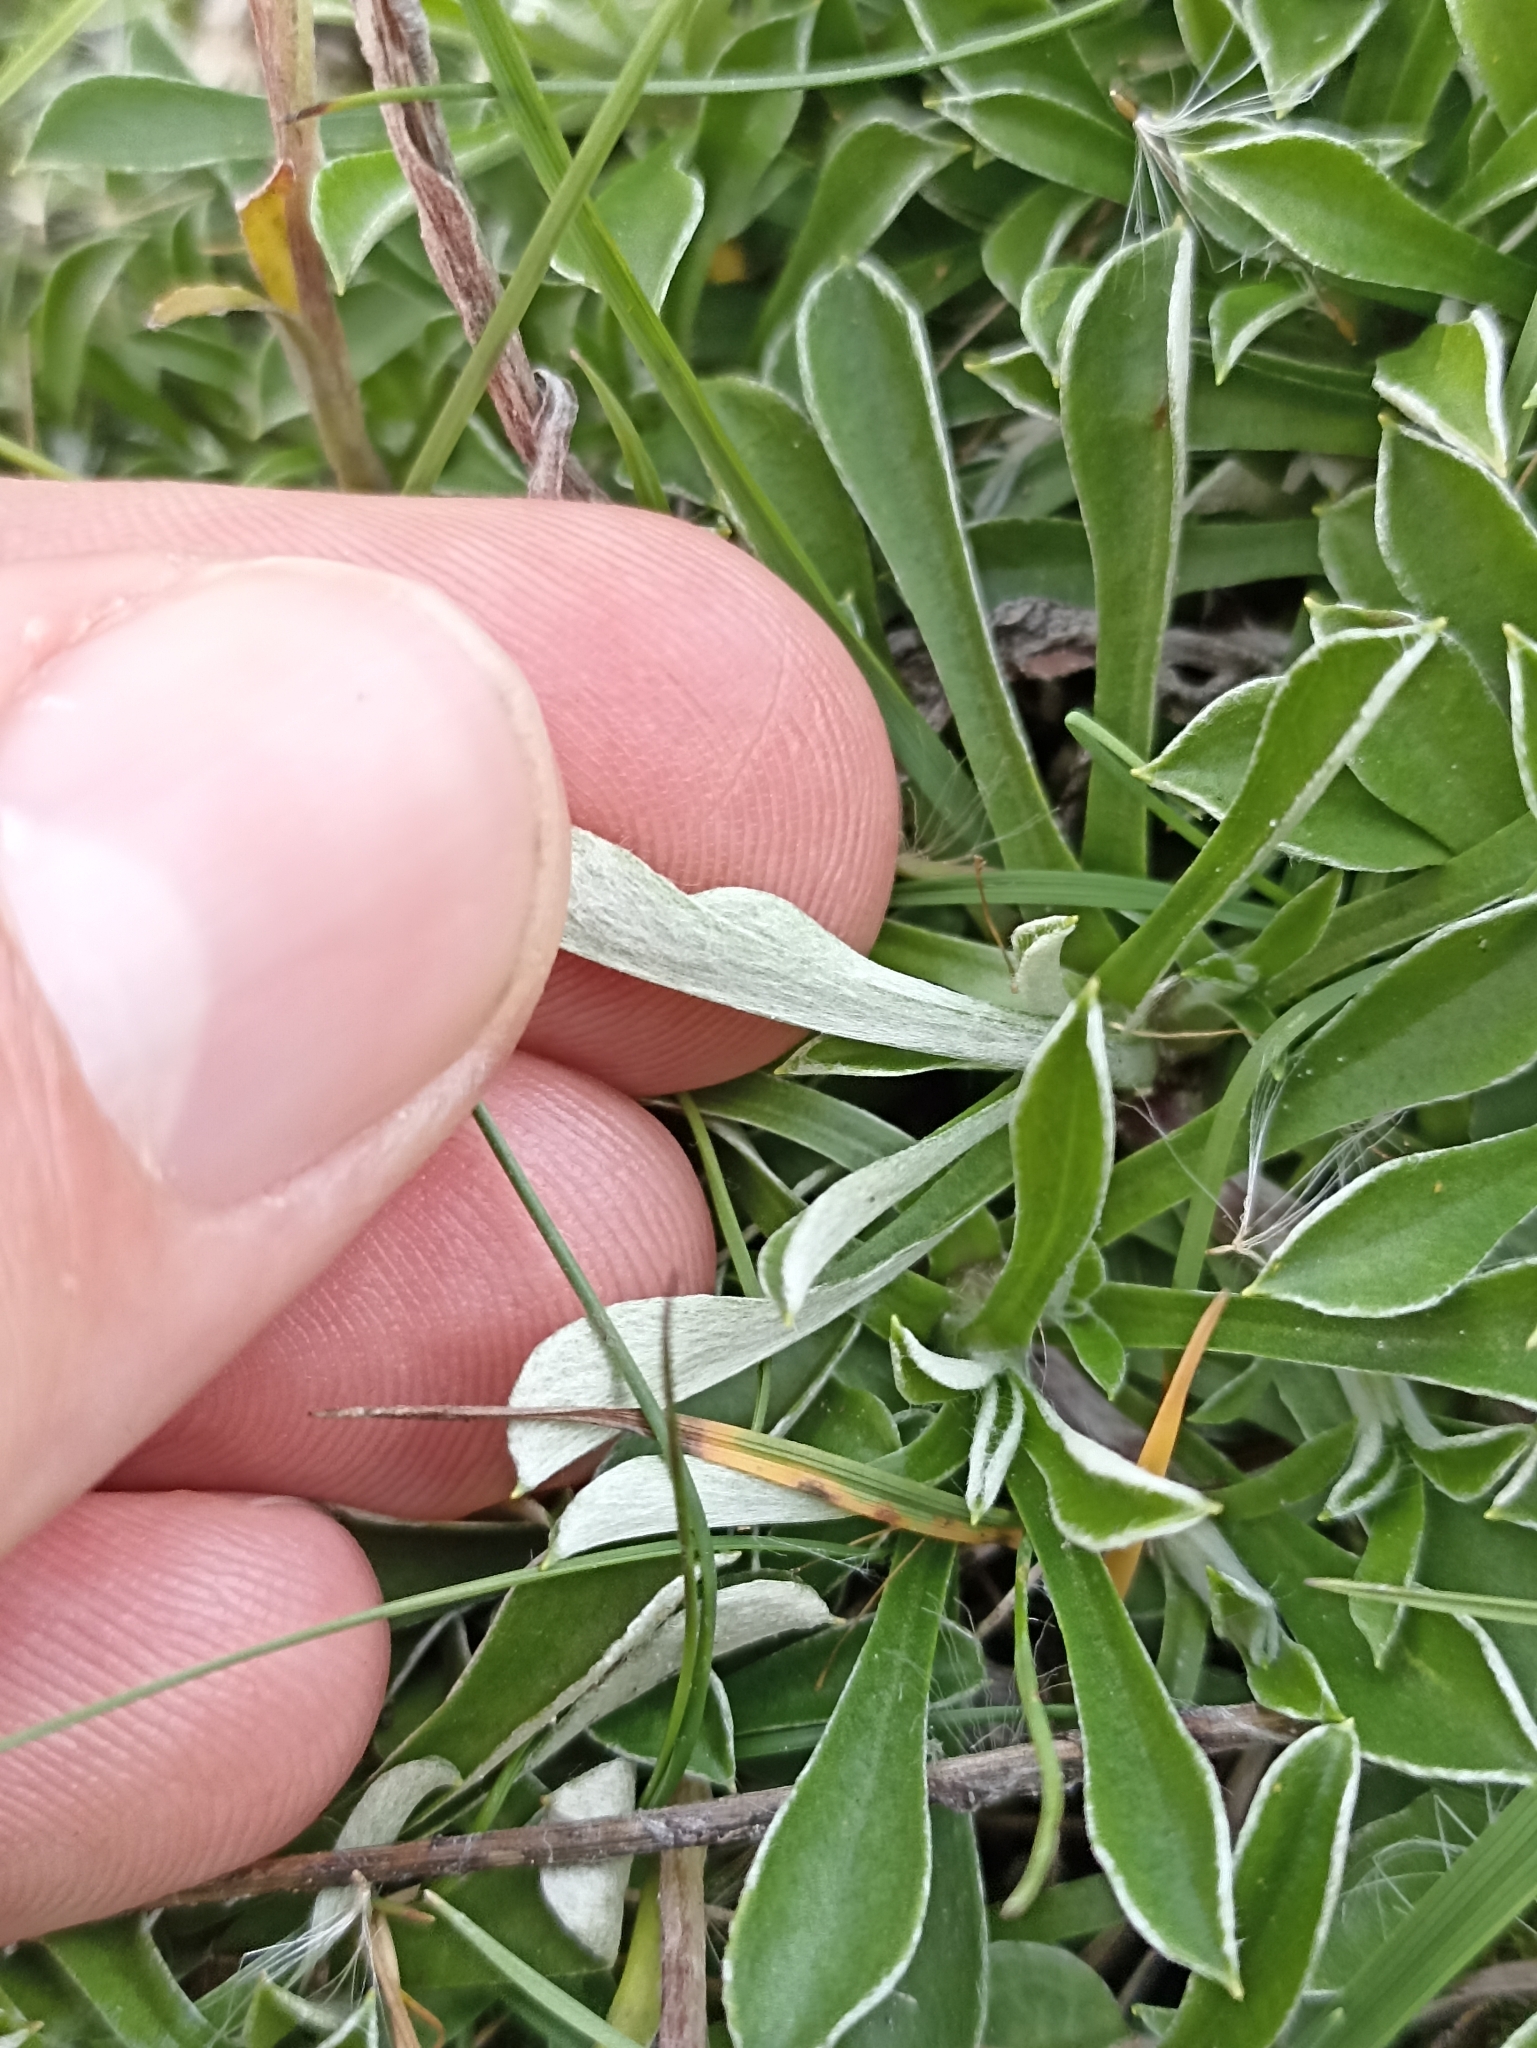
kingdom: Plantae
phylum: Tracheophyta
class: Magnoliopsida
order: Asterales
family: Asteraceae
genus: Antennaria
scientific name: Antennaria dioica
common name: Mountain everlasting
